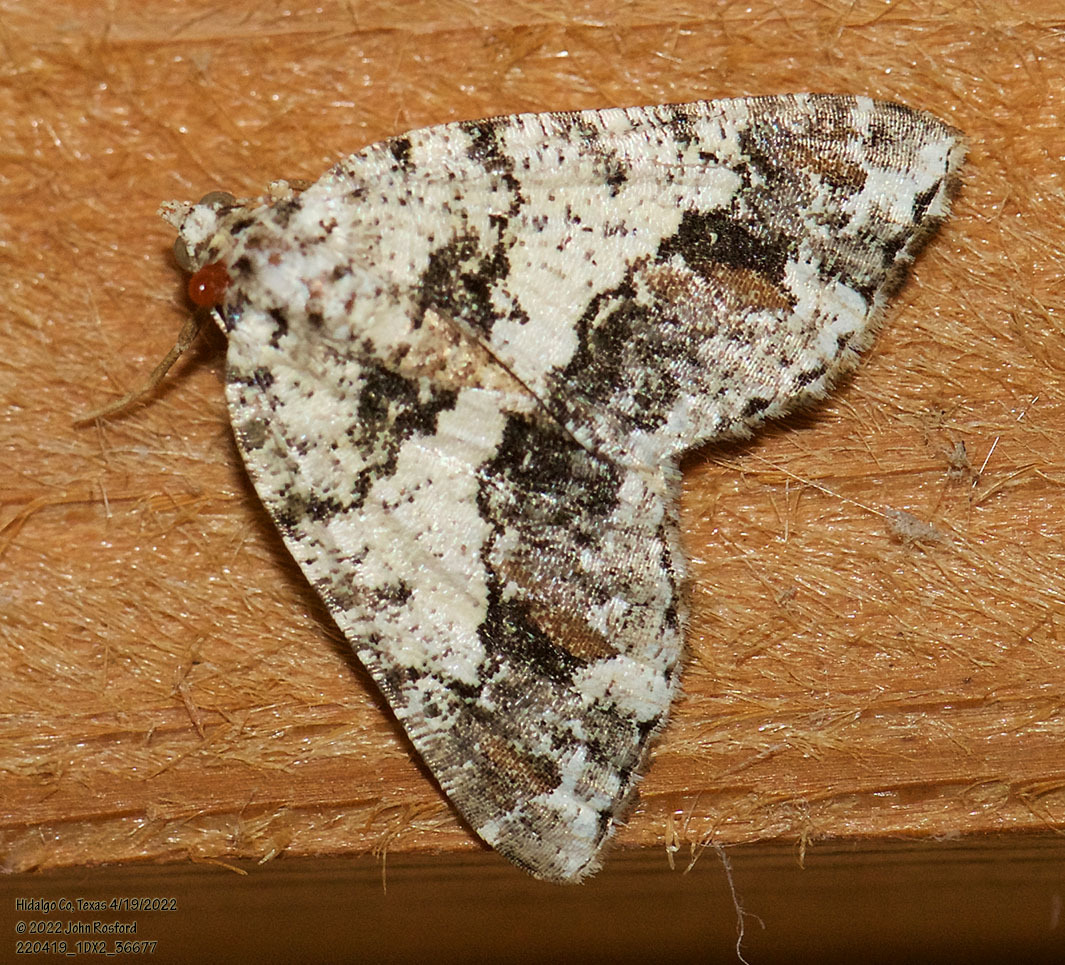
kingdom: Animalia
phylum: Arthropoda
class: Insecta
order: Lepidoptera
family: Geometridae
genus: Macaria
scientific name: Macaria graphidaria
